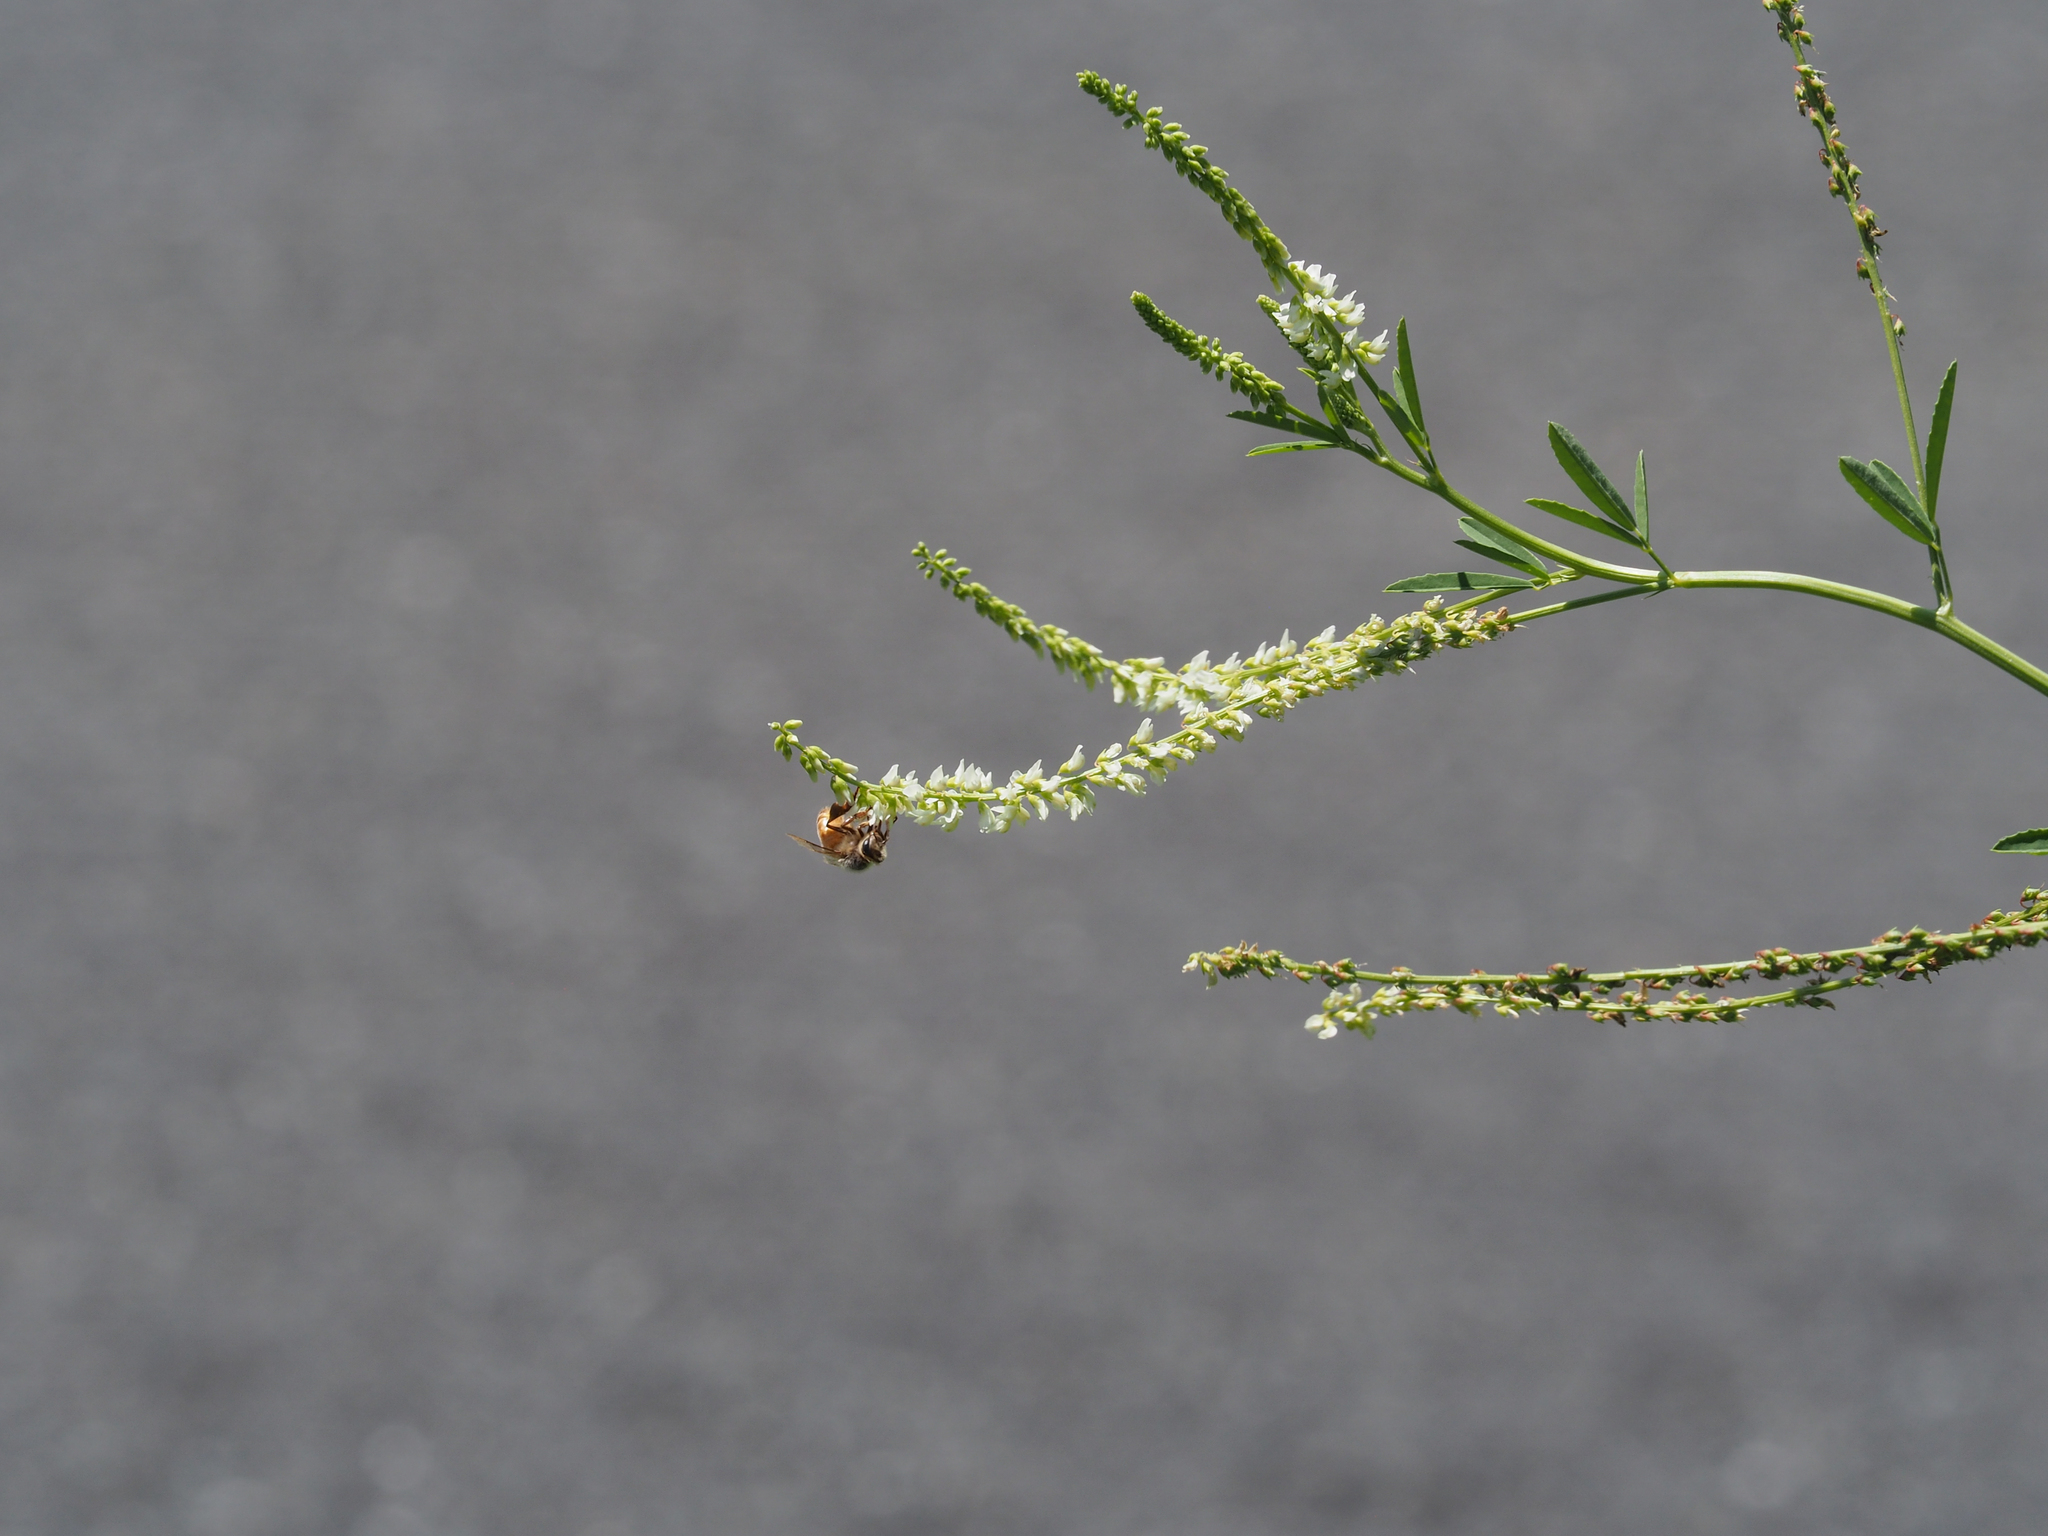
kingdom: Plantae
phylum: Tracheophyta
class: Magnoliopsida
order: Fabales
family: Fabaceae
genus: Melilotus
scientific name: Melilotus albus
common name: White melilot
